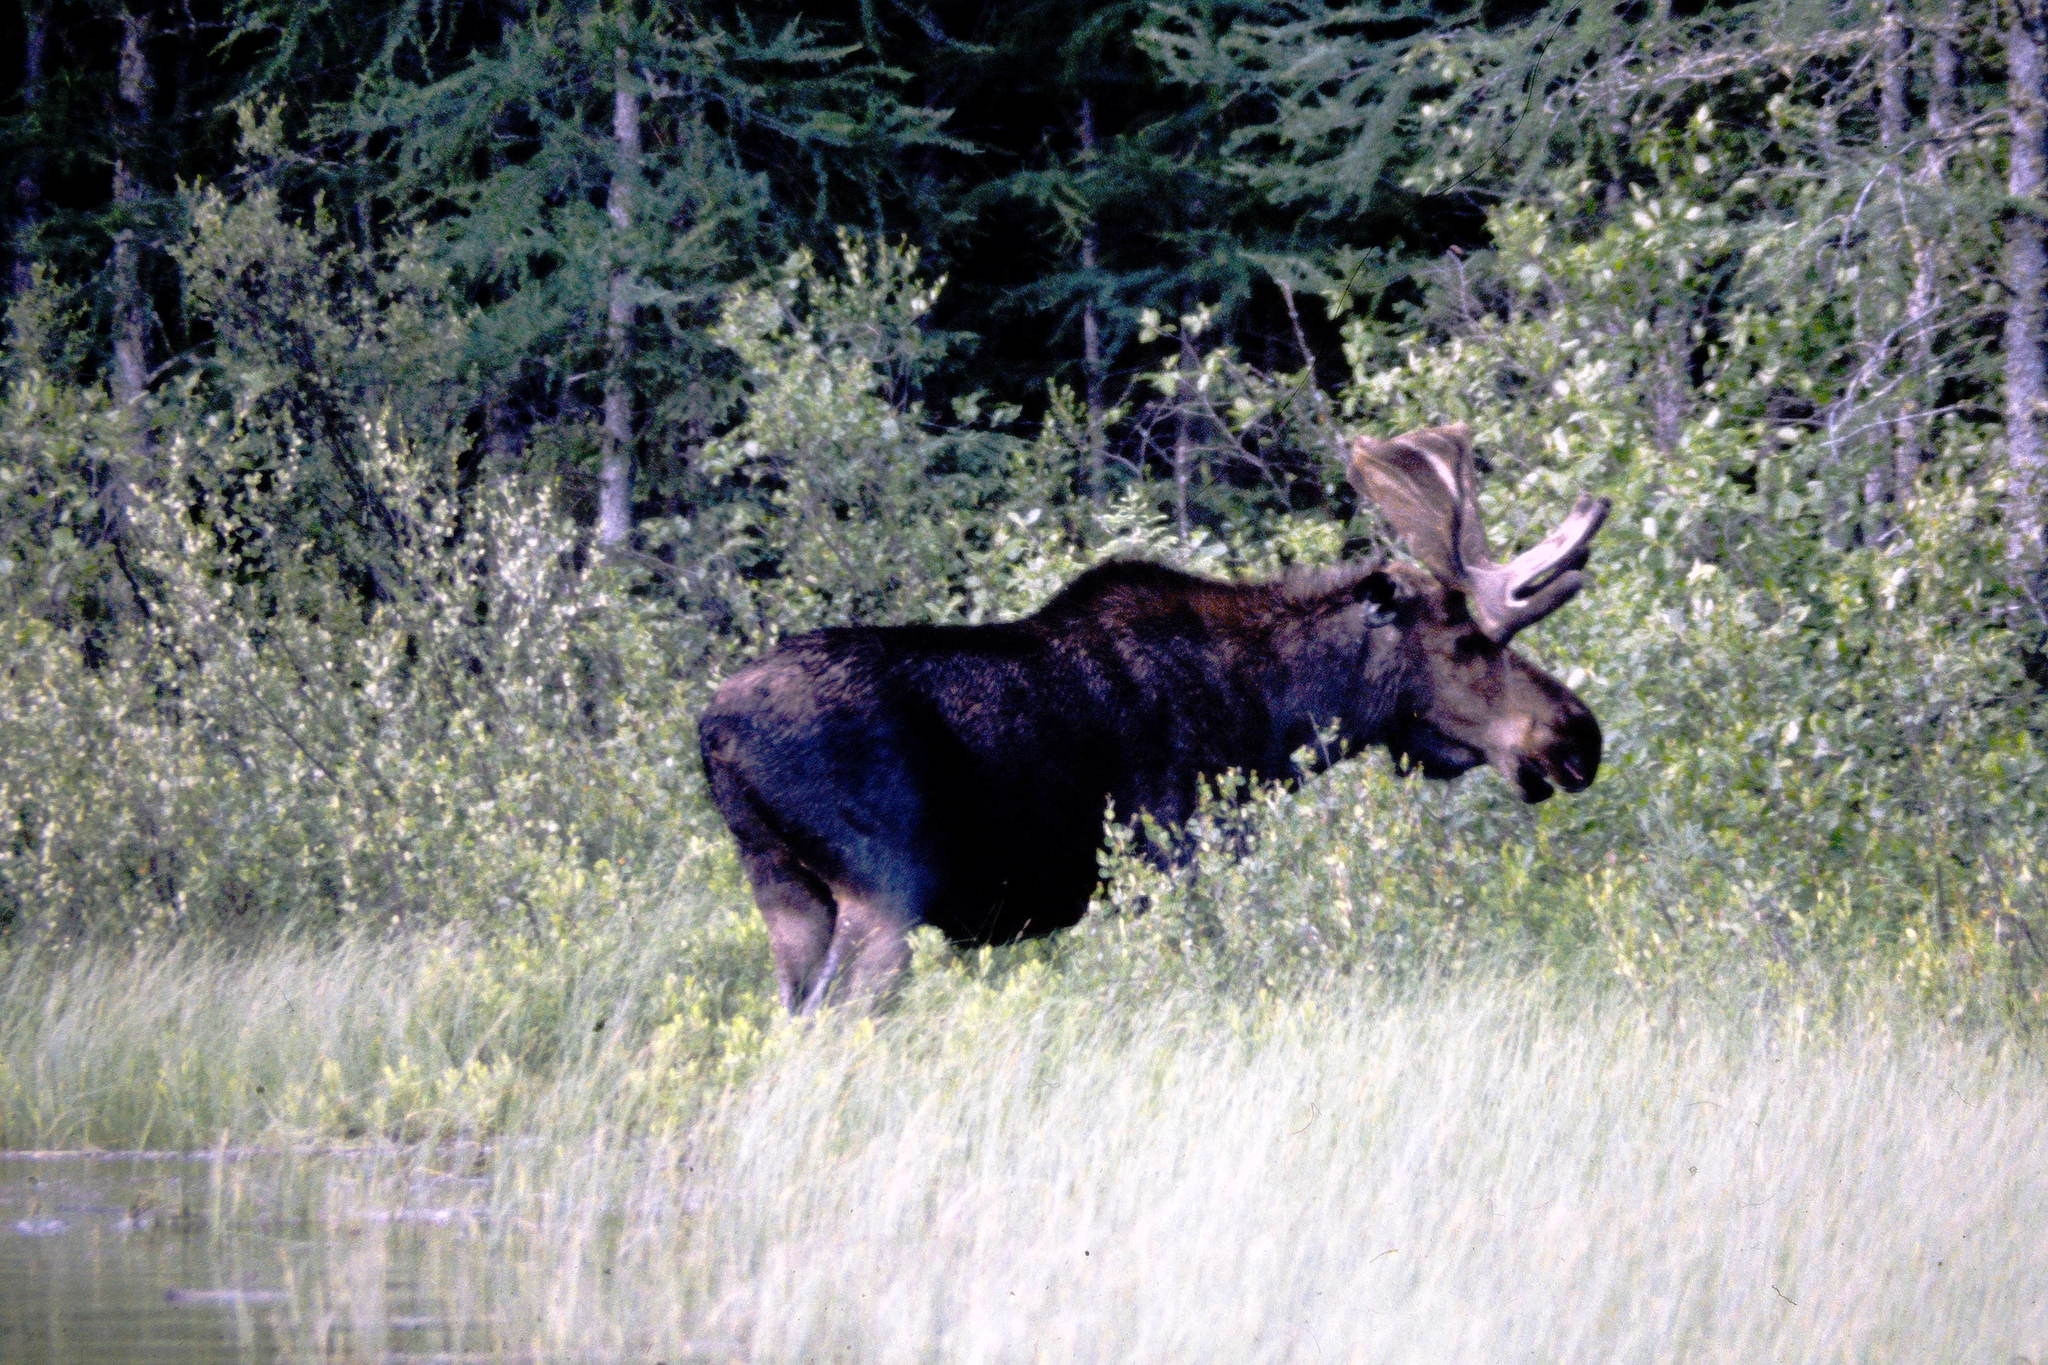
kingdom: Animalia
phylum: Chordata
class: Mammalia
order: Artiodactyla
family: Cervidae
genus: Alces
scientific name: Alces alces
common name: Moose
